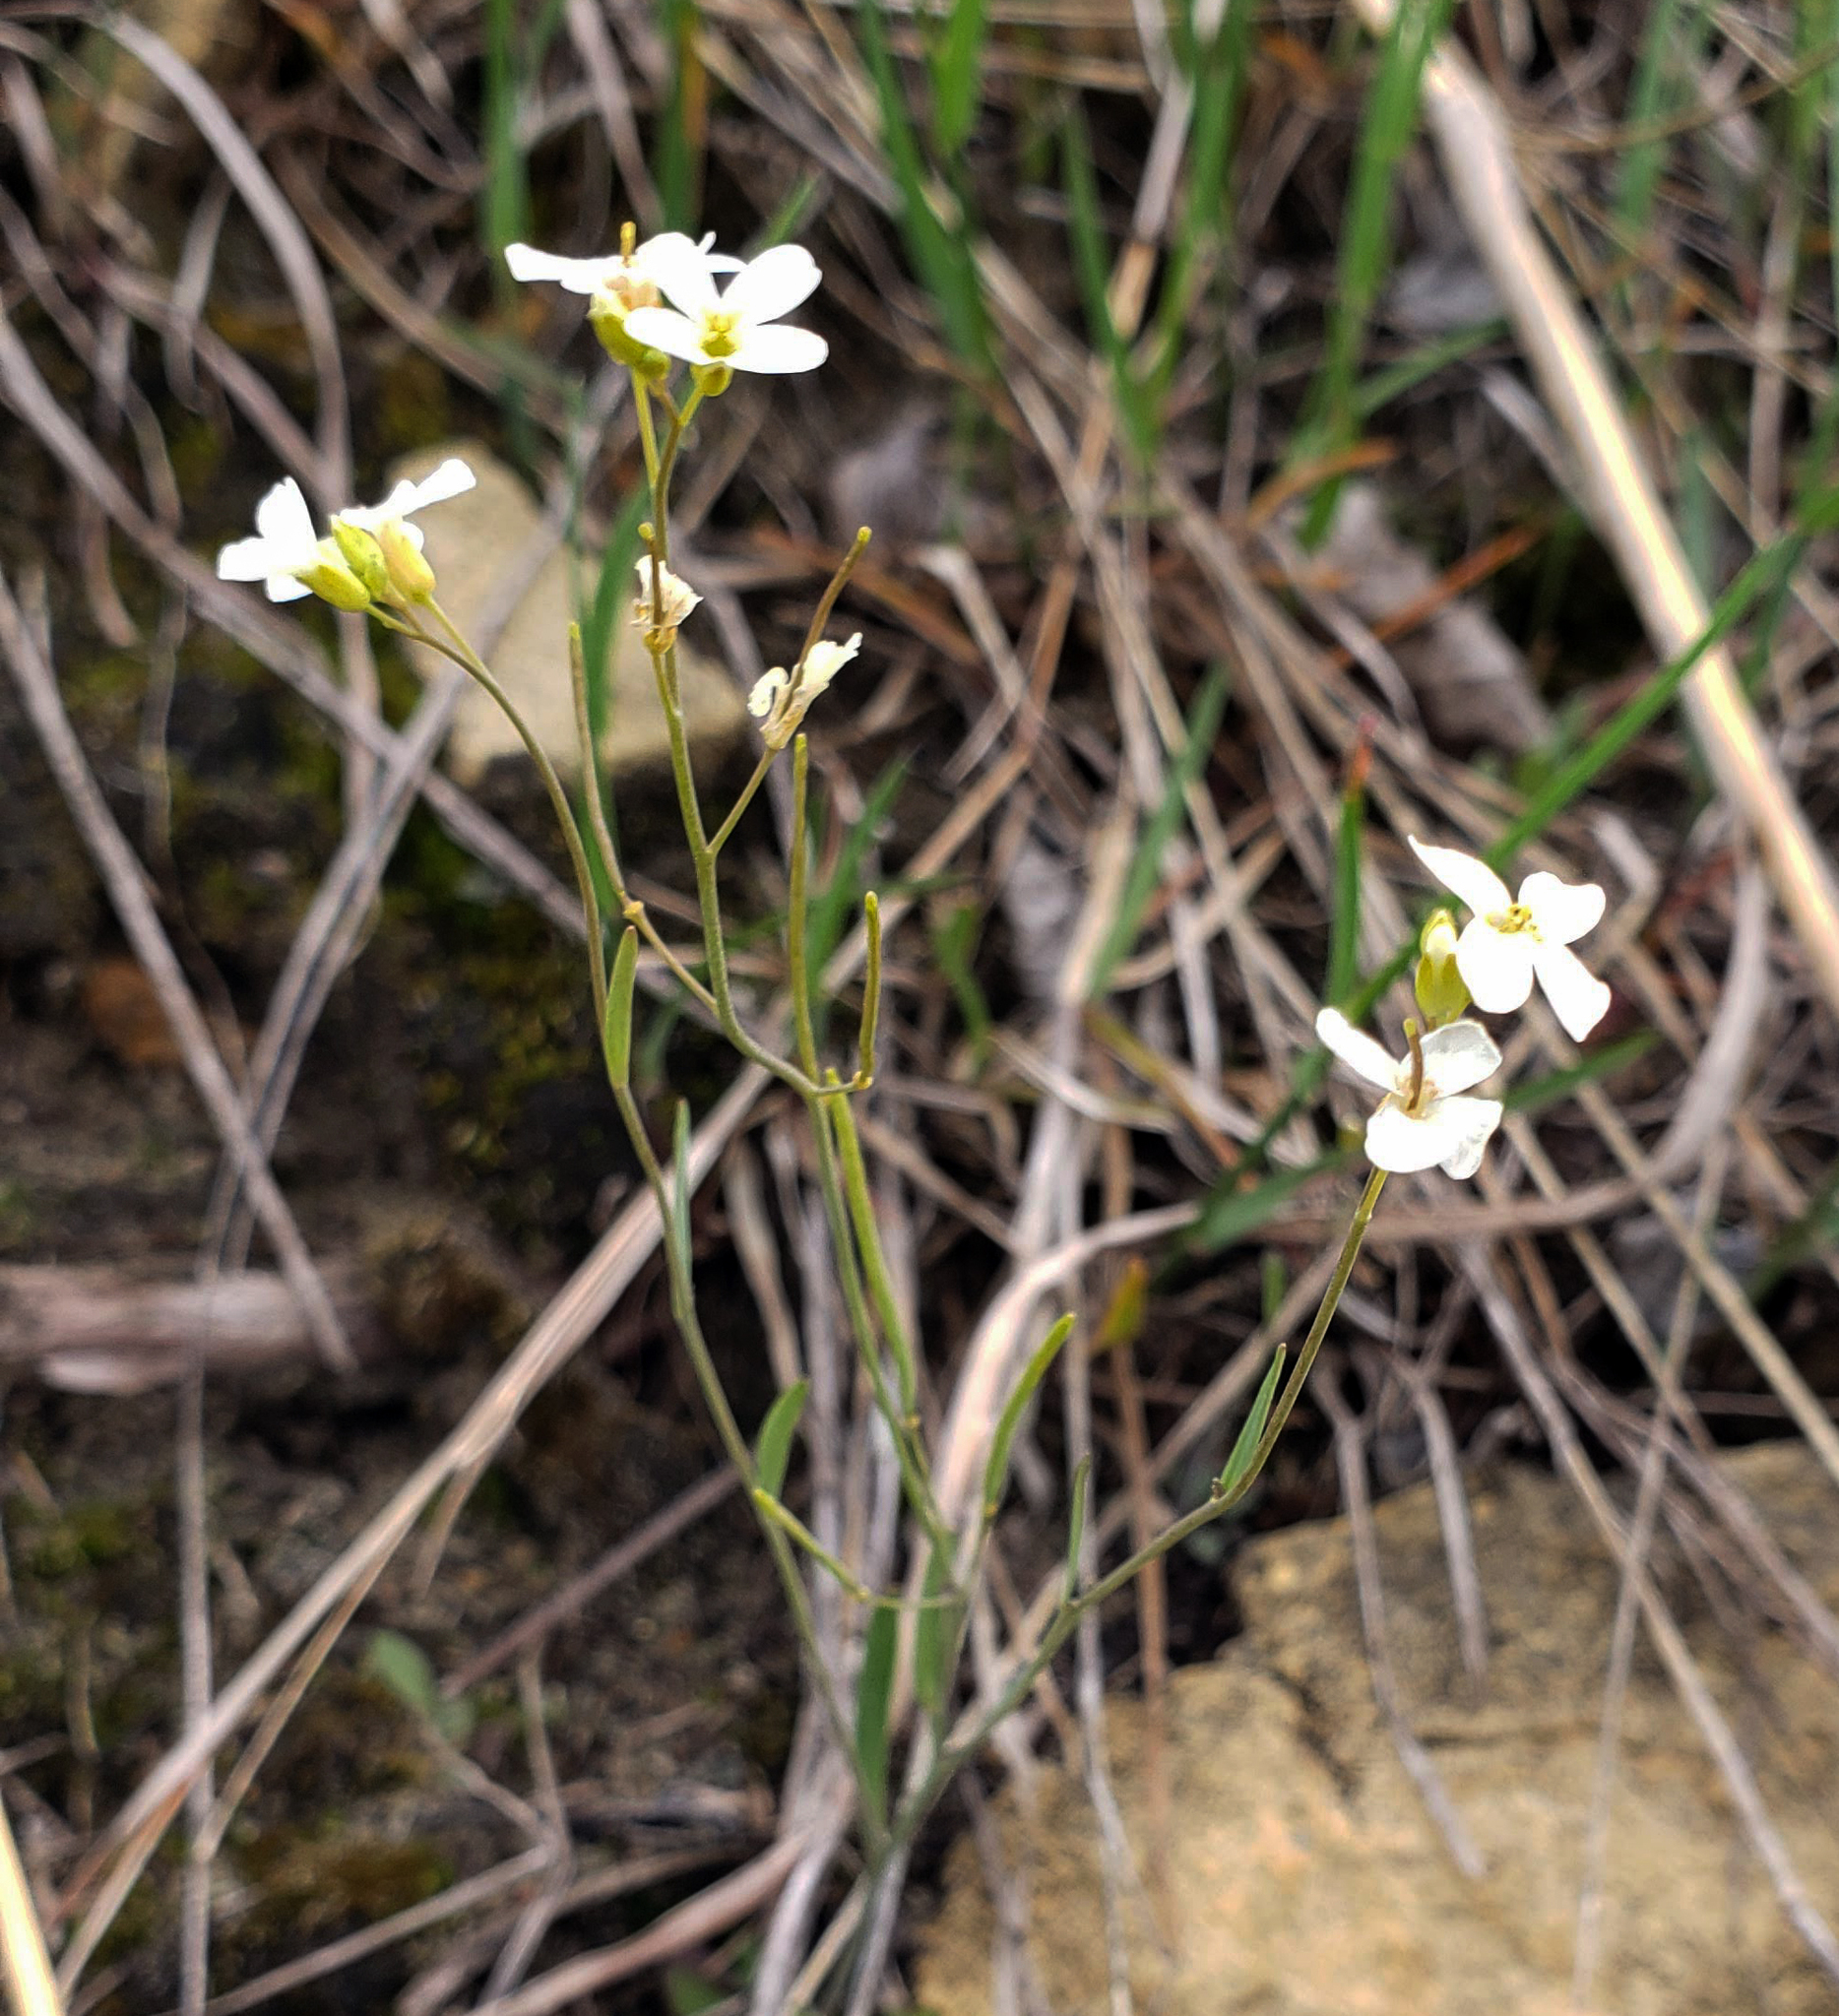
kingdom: Plantae
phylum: Tracheophyta
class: Magnoliopsida
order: Brassicales
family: Brassicaceae
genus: Arabidopsis
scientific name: Arabidopsis lyrata
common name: Lyrate rockcress
